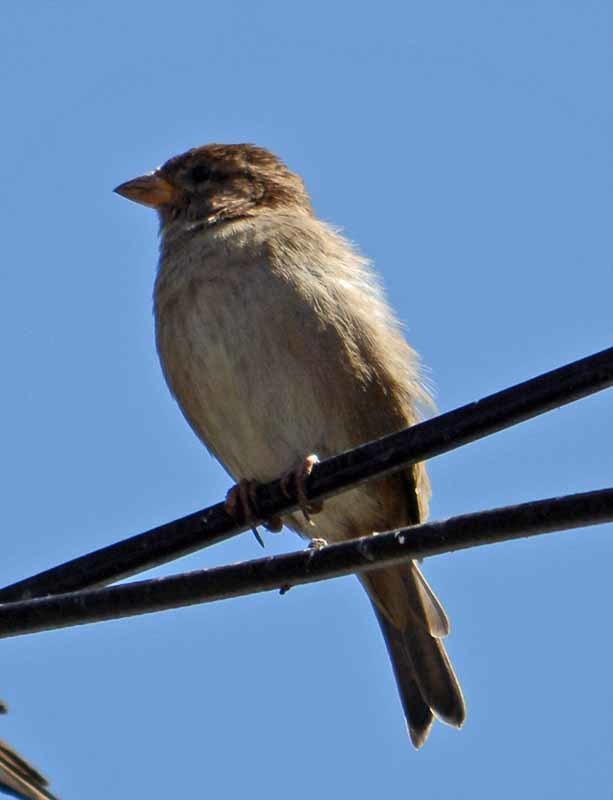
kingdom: Animalia
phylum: Chordata
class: Aves
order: Passeriformes
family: Passeridae
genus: Passer
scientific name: Passer domesticus
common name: House sparrow
